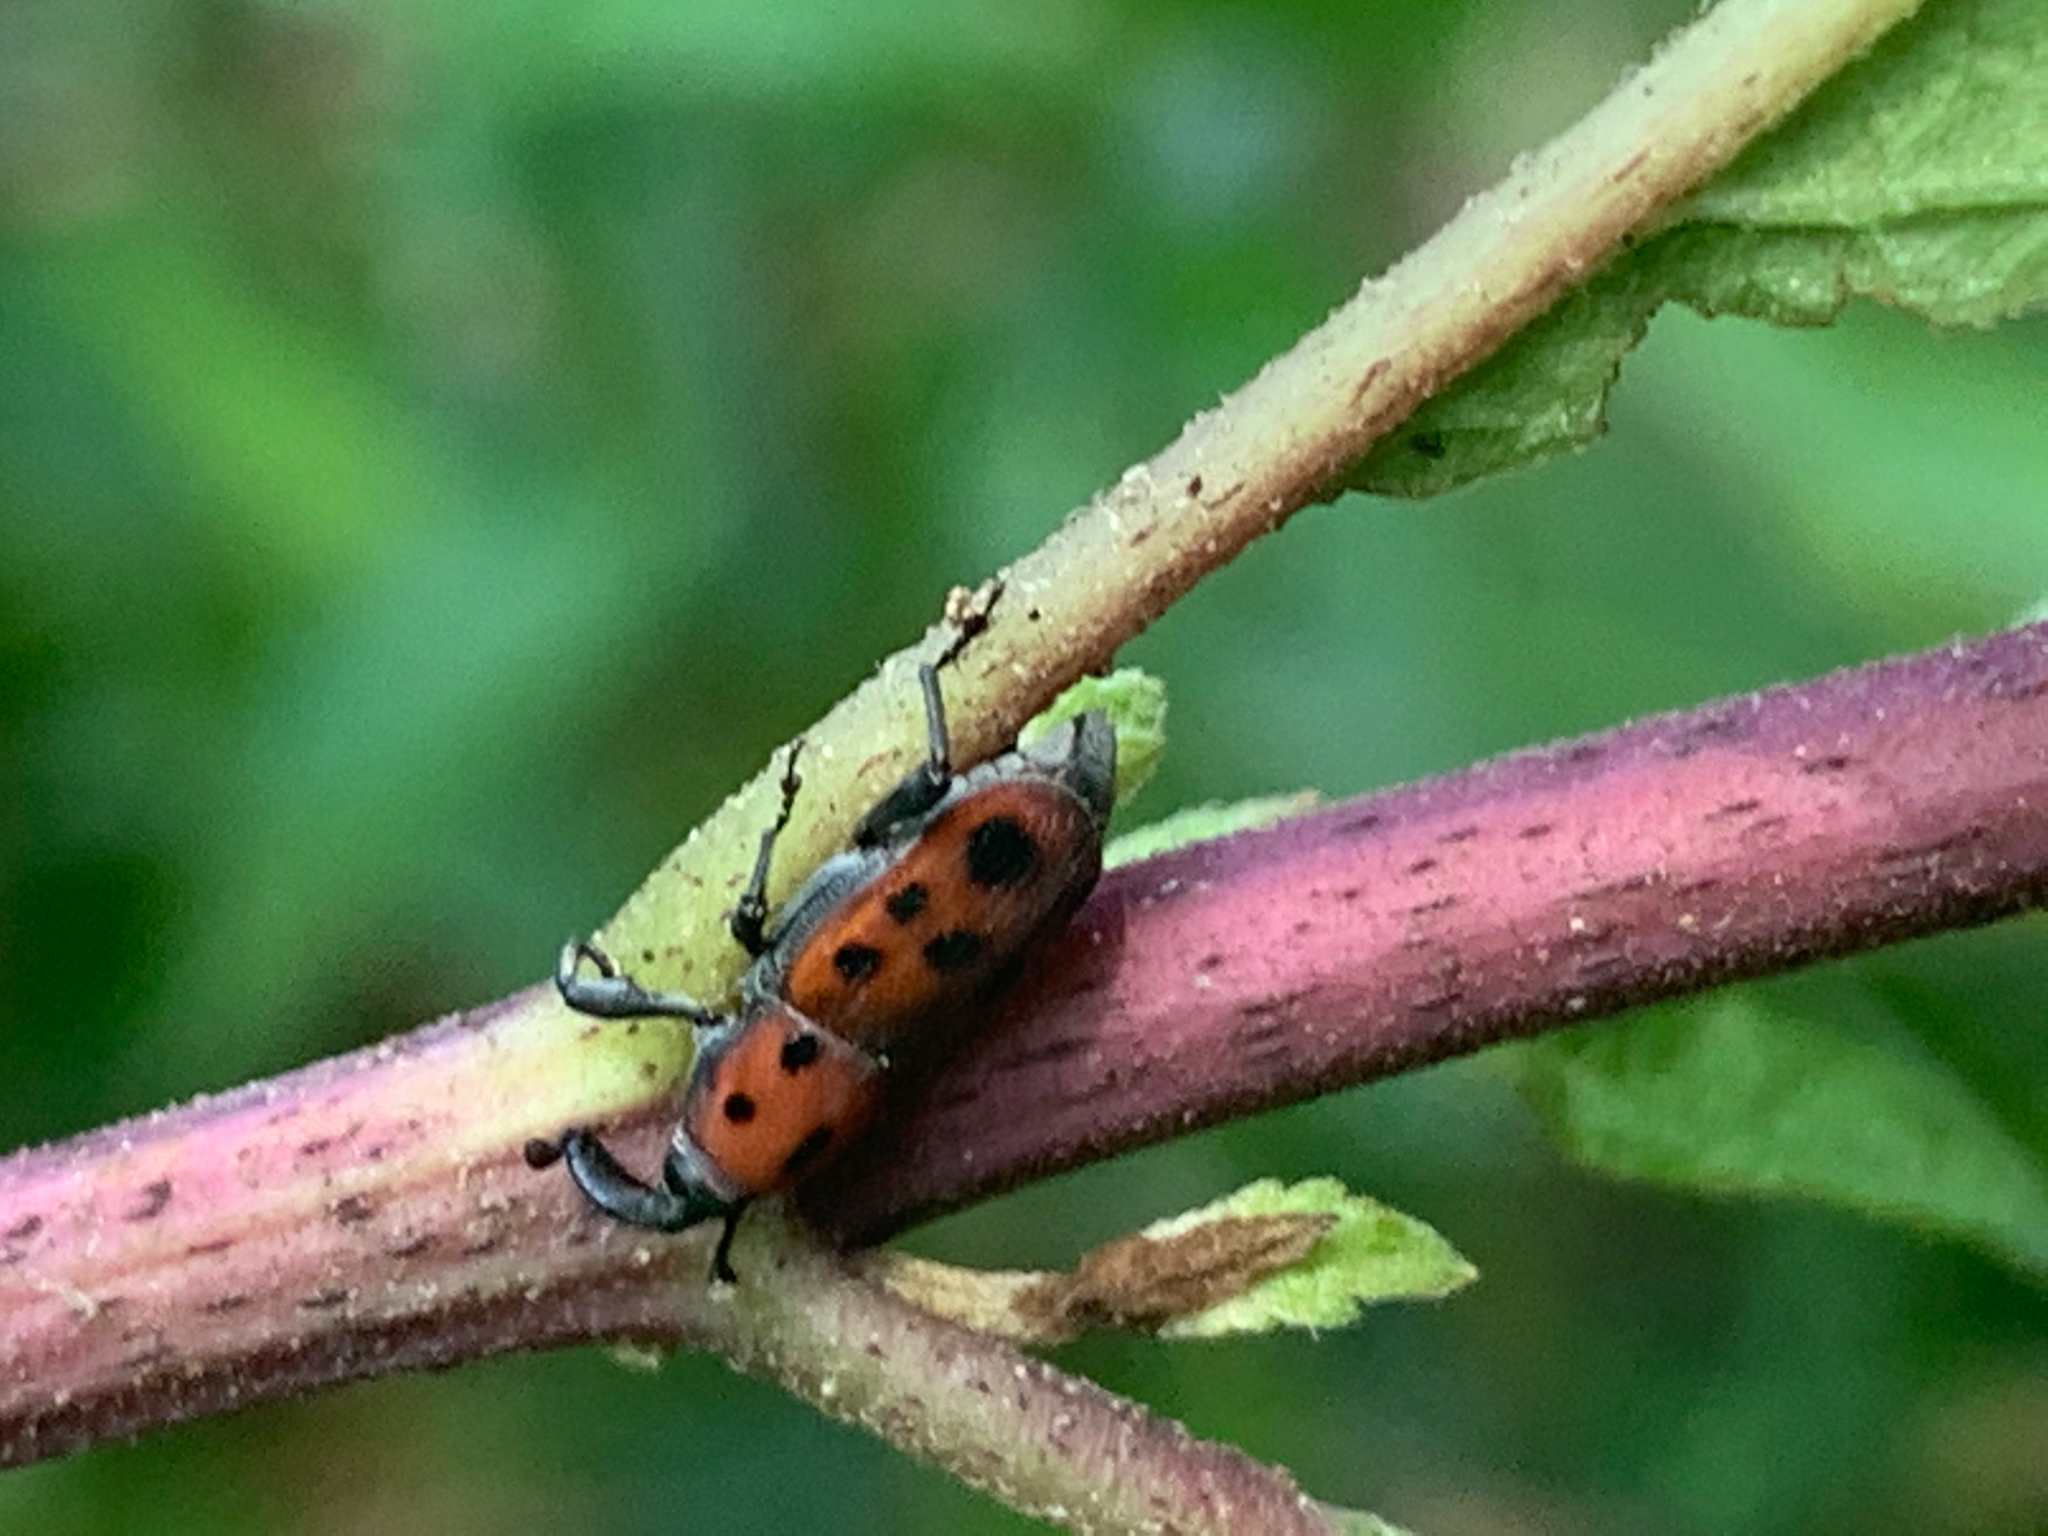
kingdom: Animalia
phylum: Arthropoda
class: Insecta
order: Coleoptera
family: Dryophthoridae
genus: Rhodobaenus
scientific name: Rhodobaenus tredecimpunctatus
